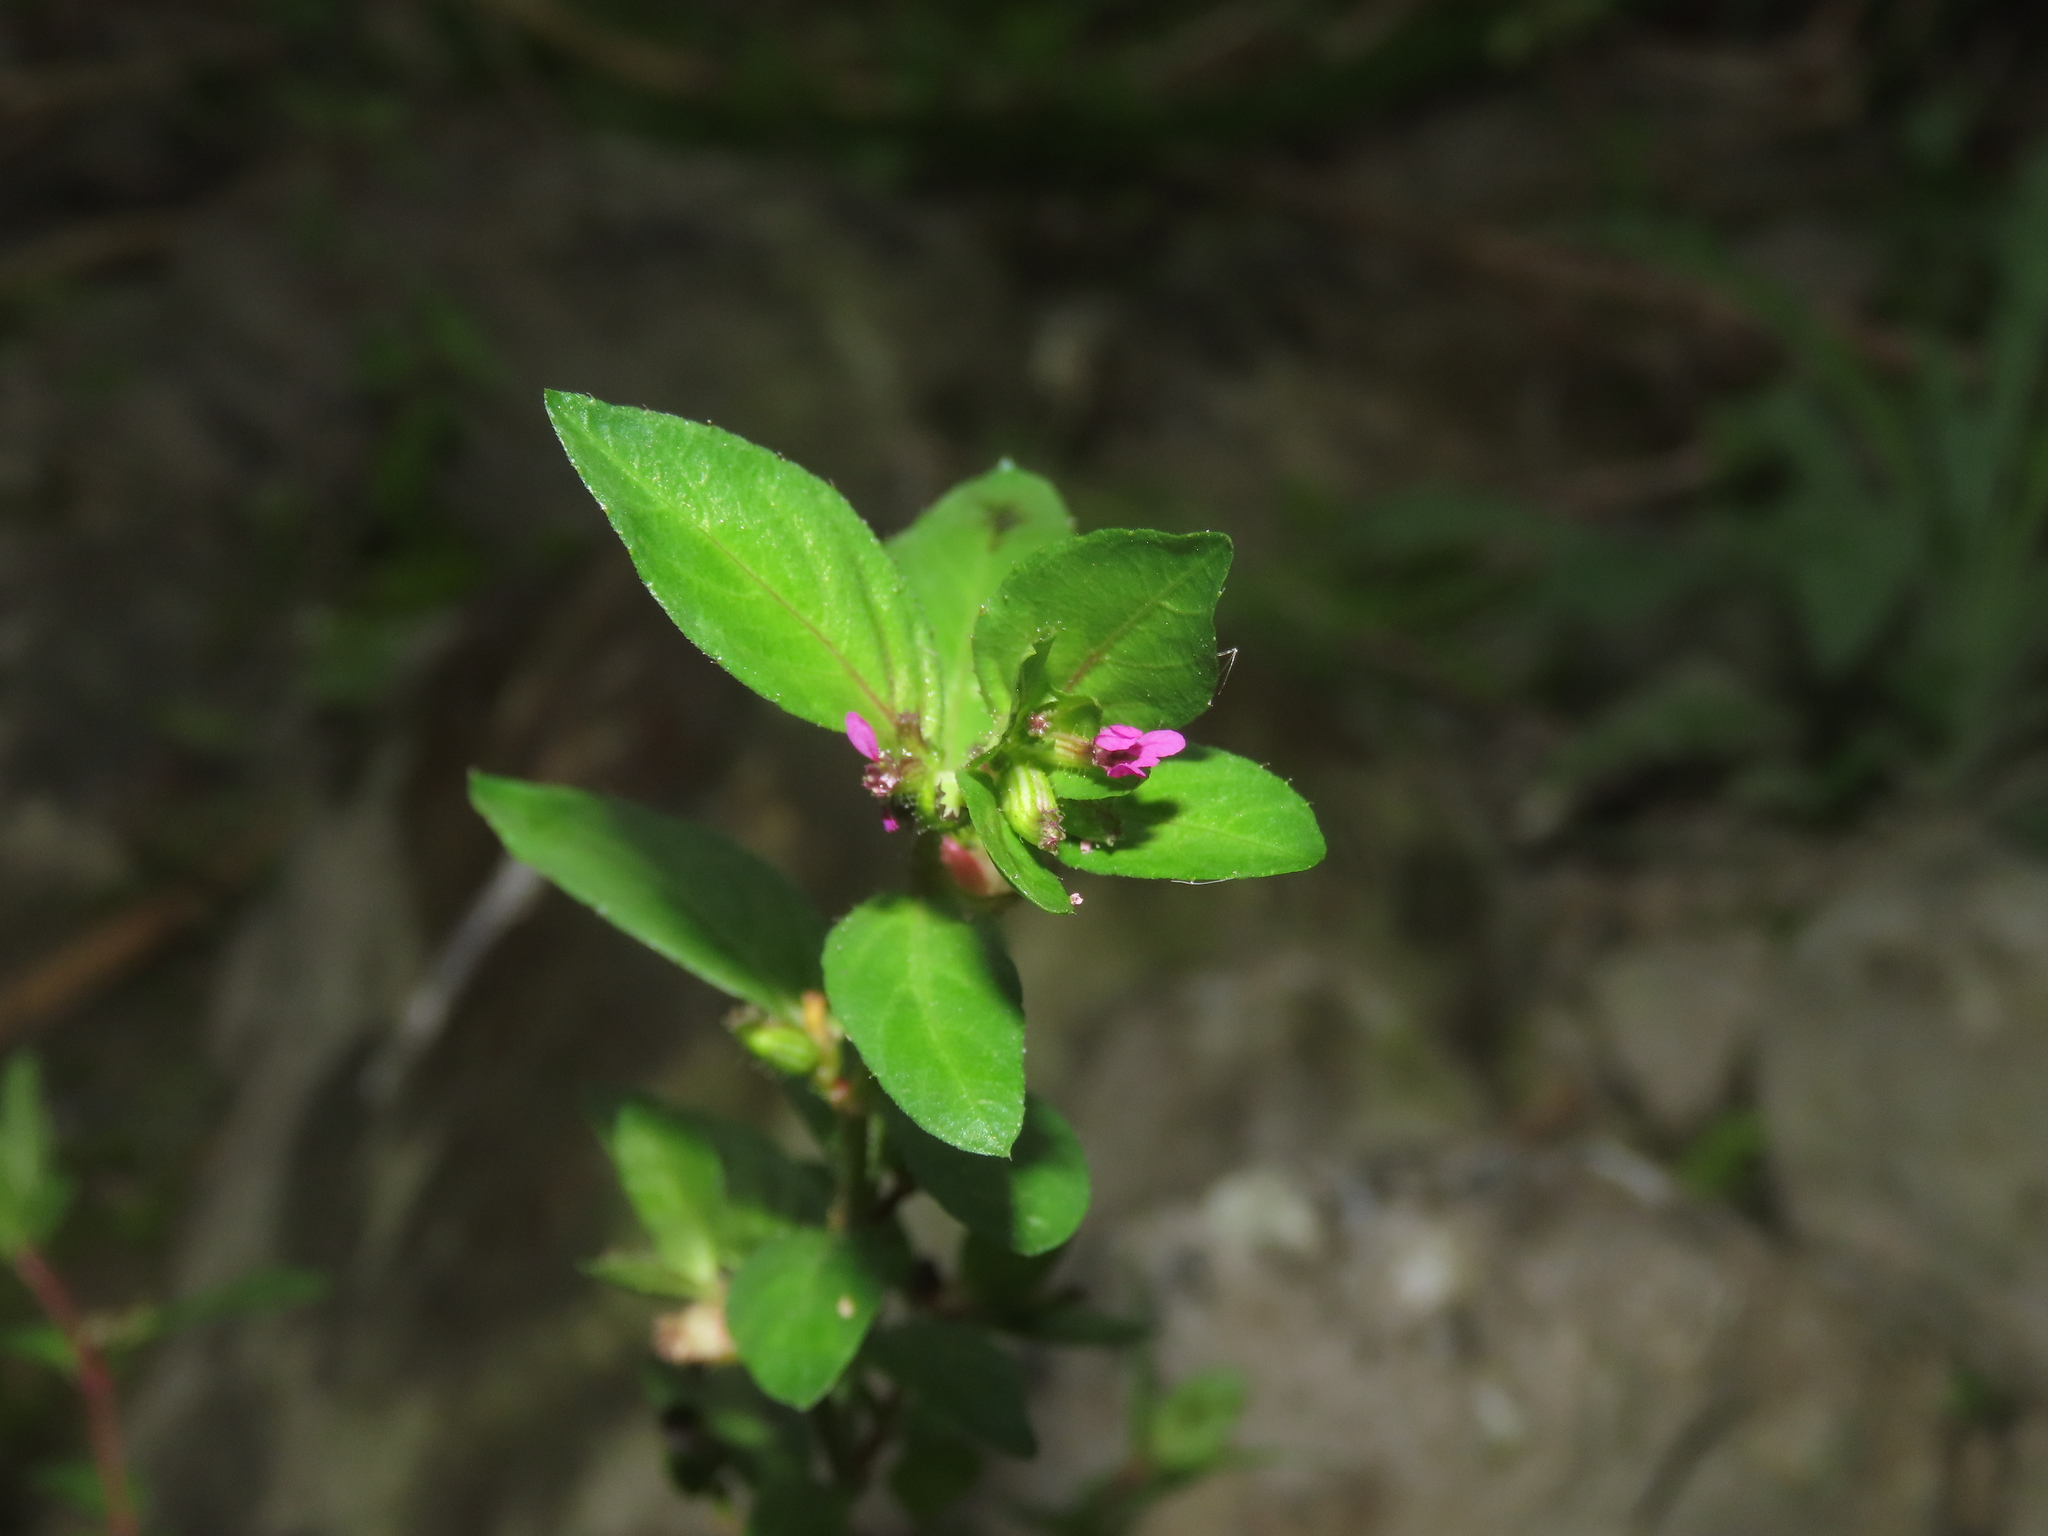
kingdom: Plantae
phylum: Tracheophyta
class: Magnoliopsida
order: Myrtales
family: Lythraceae
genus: Cuphea
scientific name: Cuphea carthagenensis
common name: Colombian waxweed
